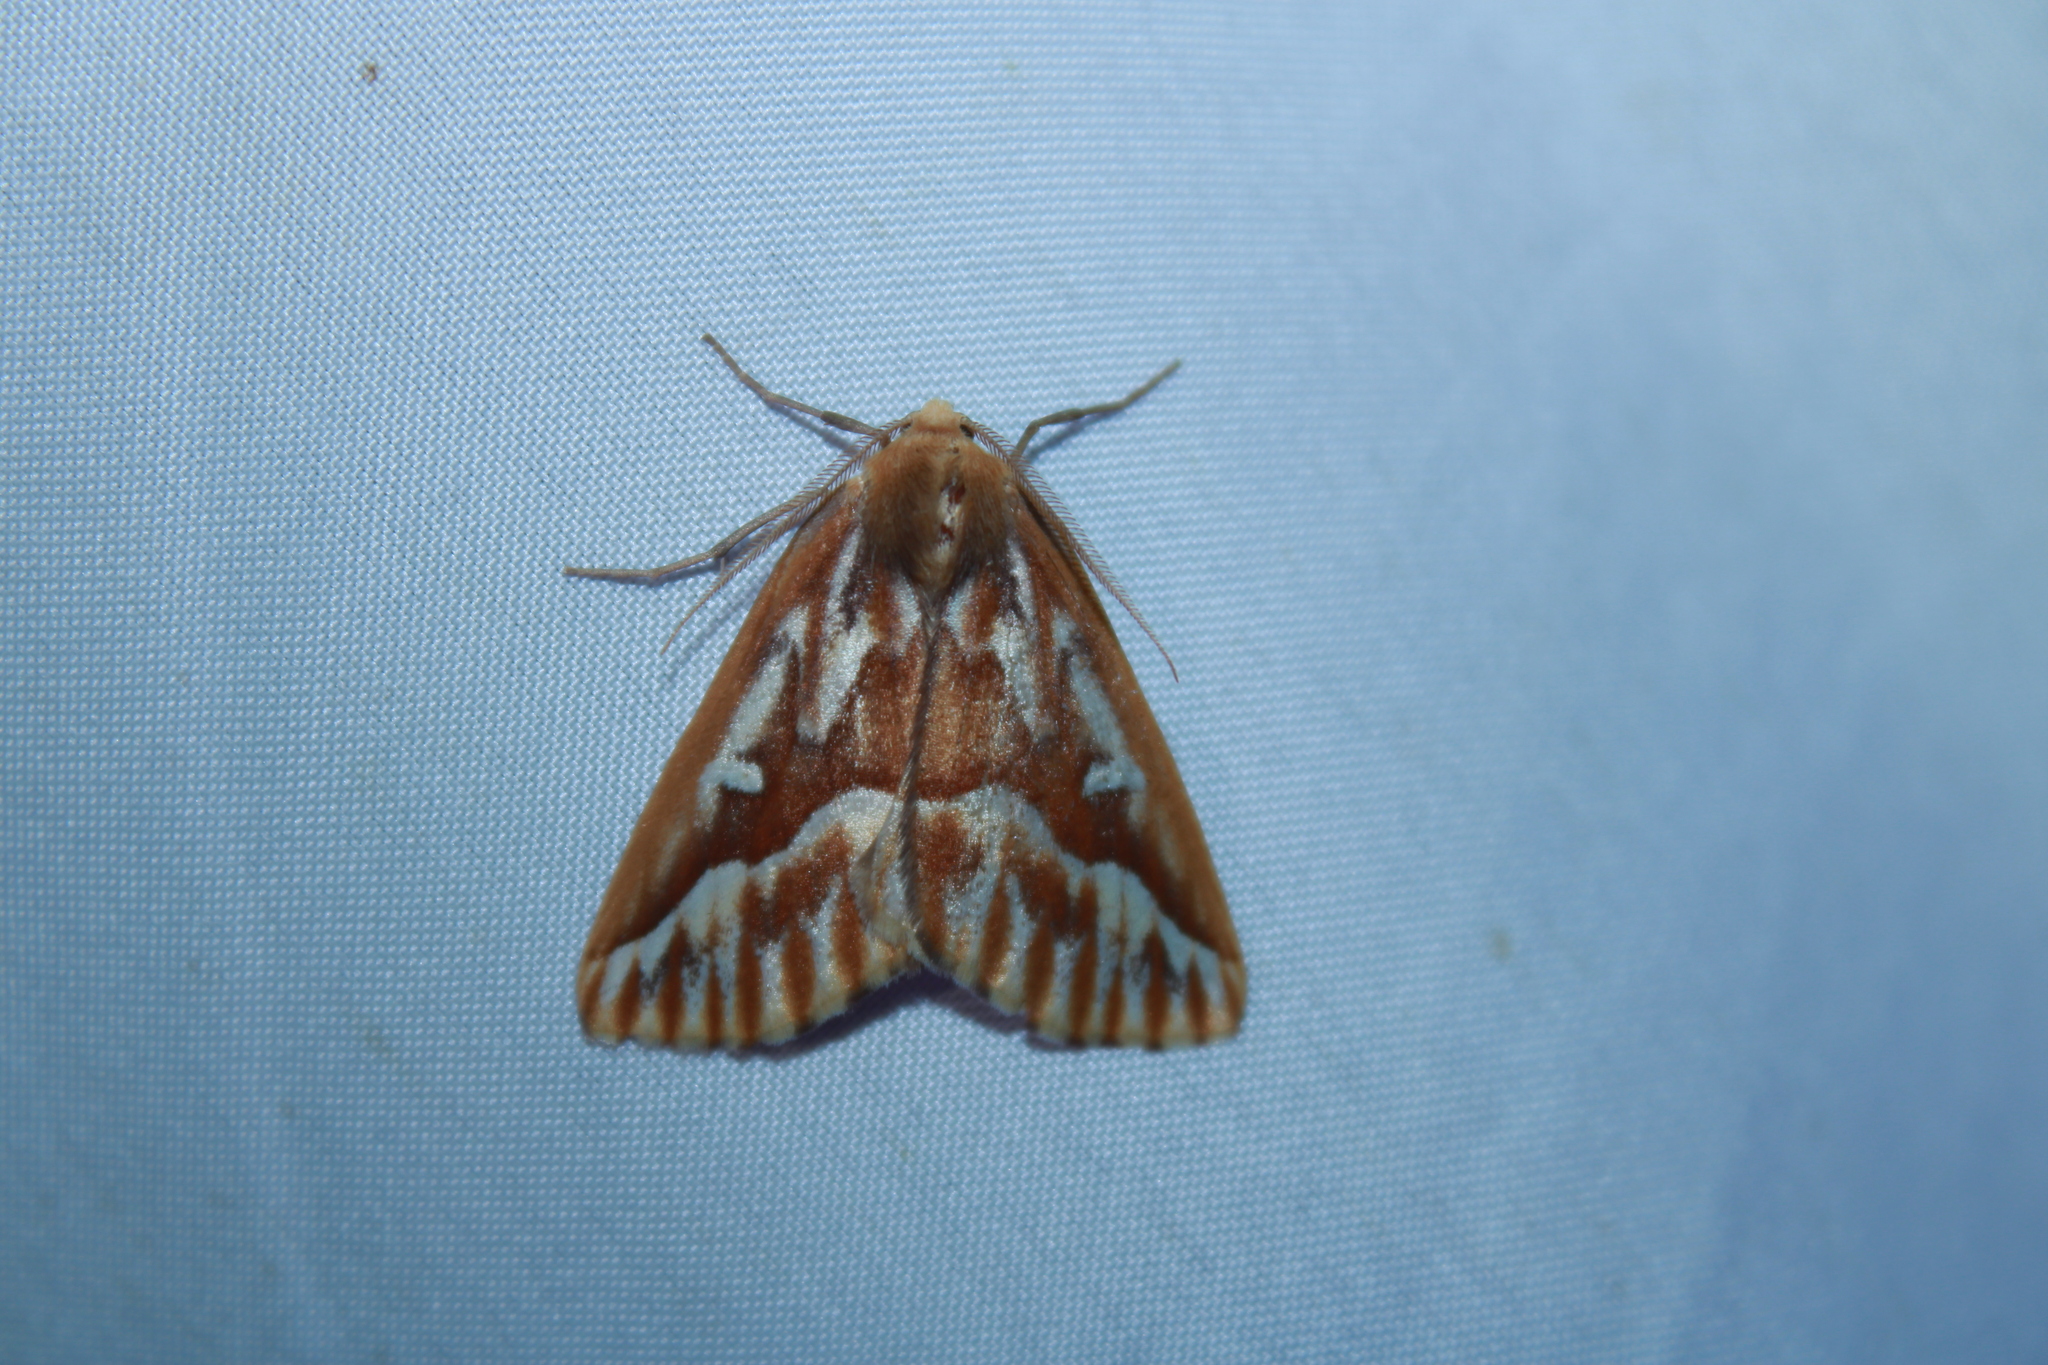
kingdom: Animalia
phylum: Arthropoda
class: Insecta
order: Lepidoptera
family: Geometridae
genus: Caripeta
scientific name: Caripeta piniata
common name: Northern pine looper moth
